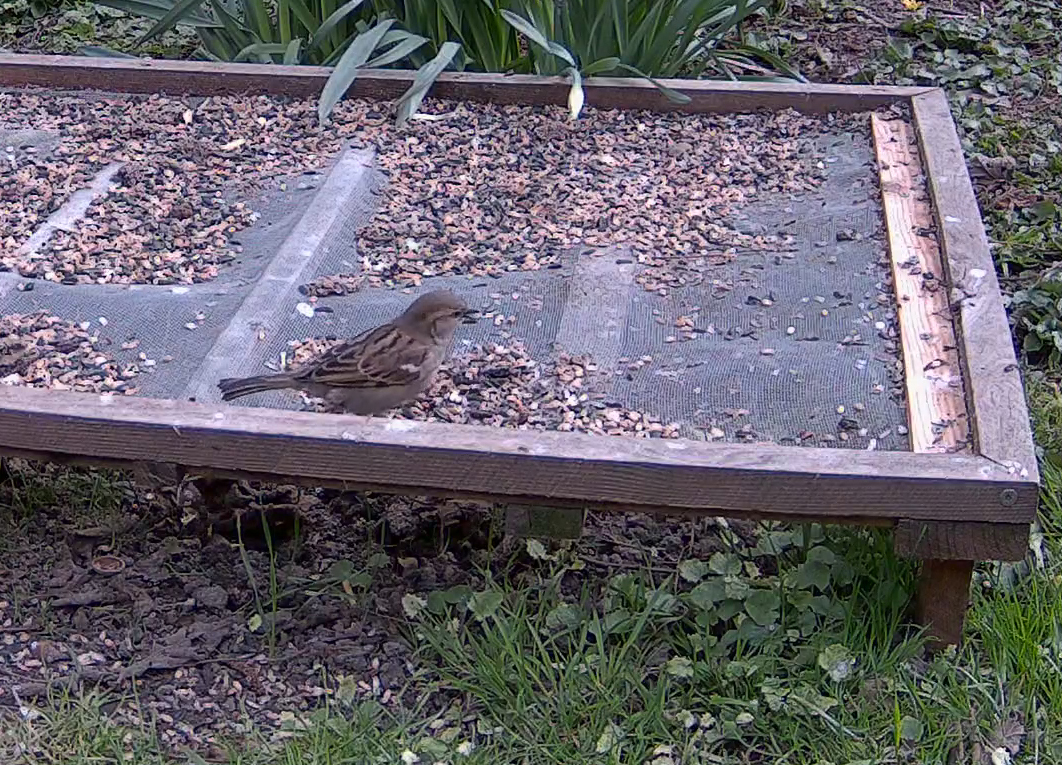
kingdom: Animalia
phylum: Chordata
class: Aves
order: Passeriformes
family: Passeridae
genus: Passer
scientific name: Passer domesticus
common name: House sparrow
